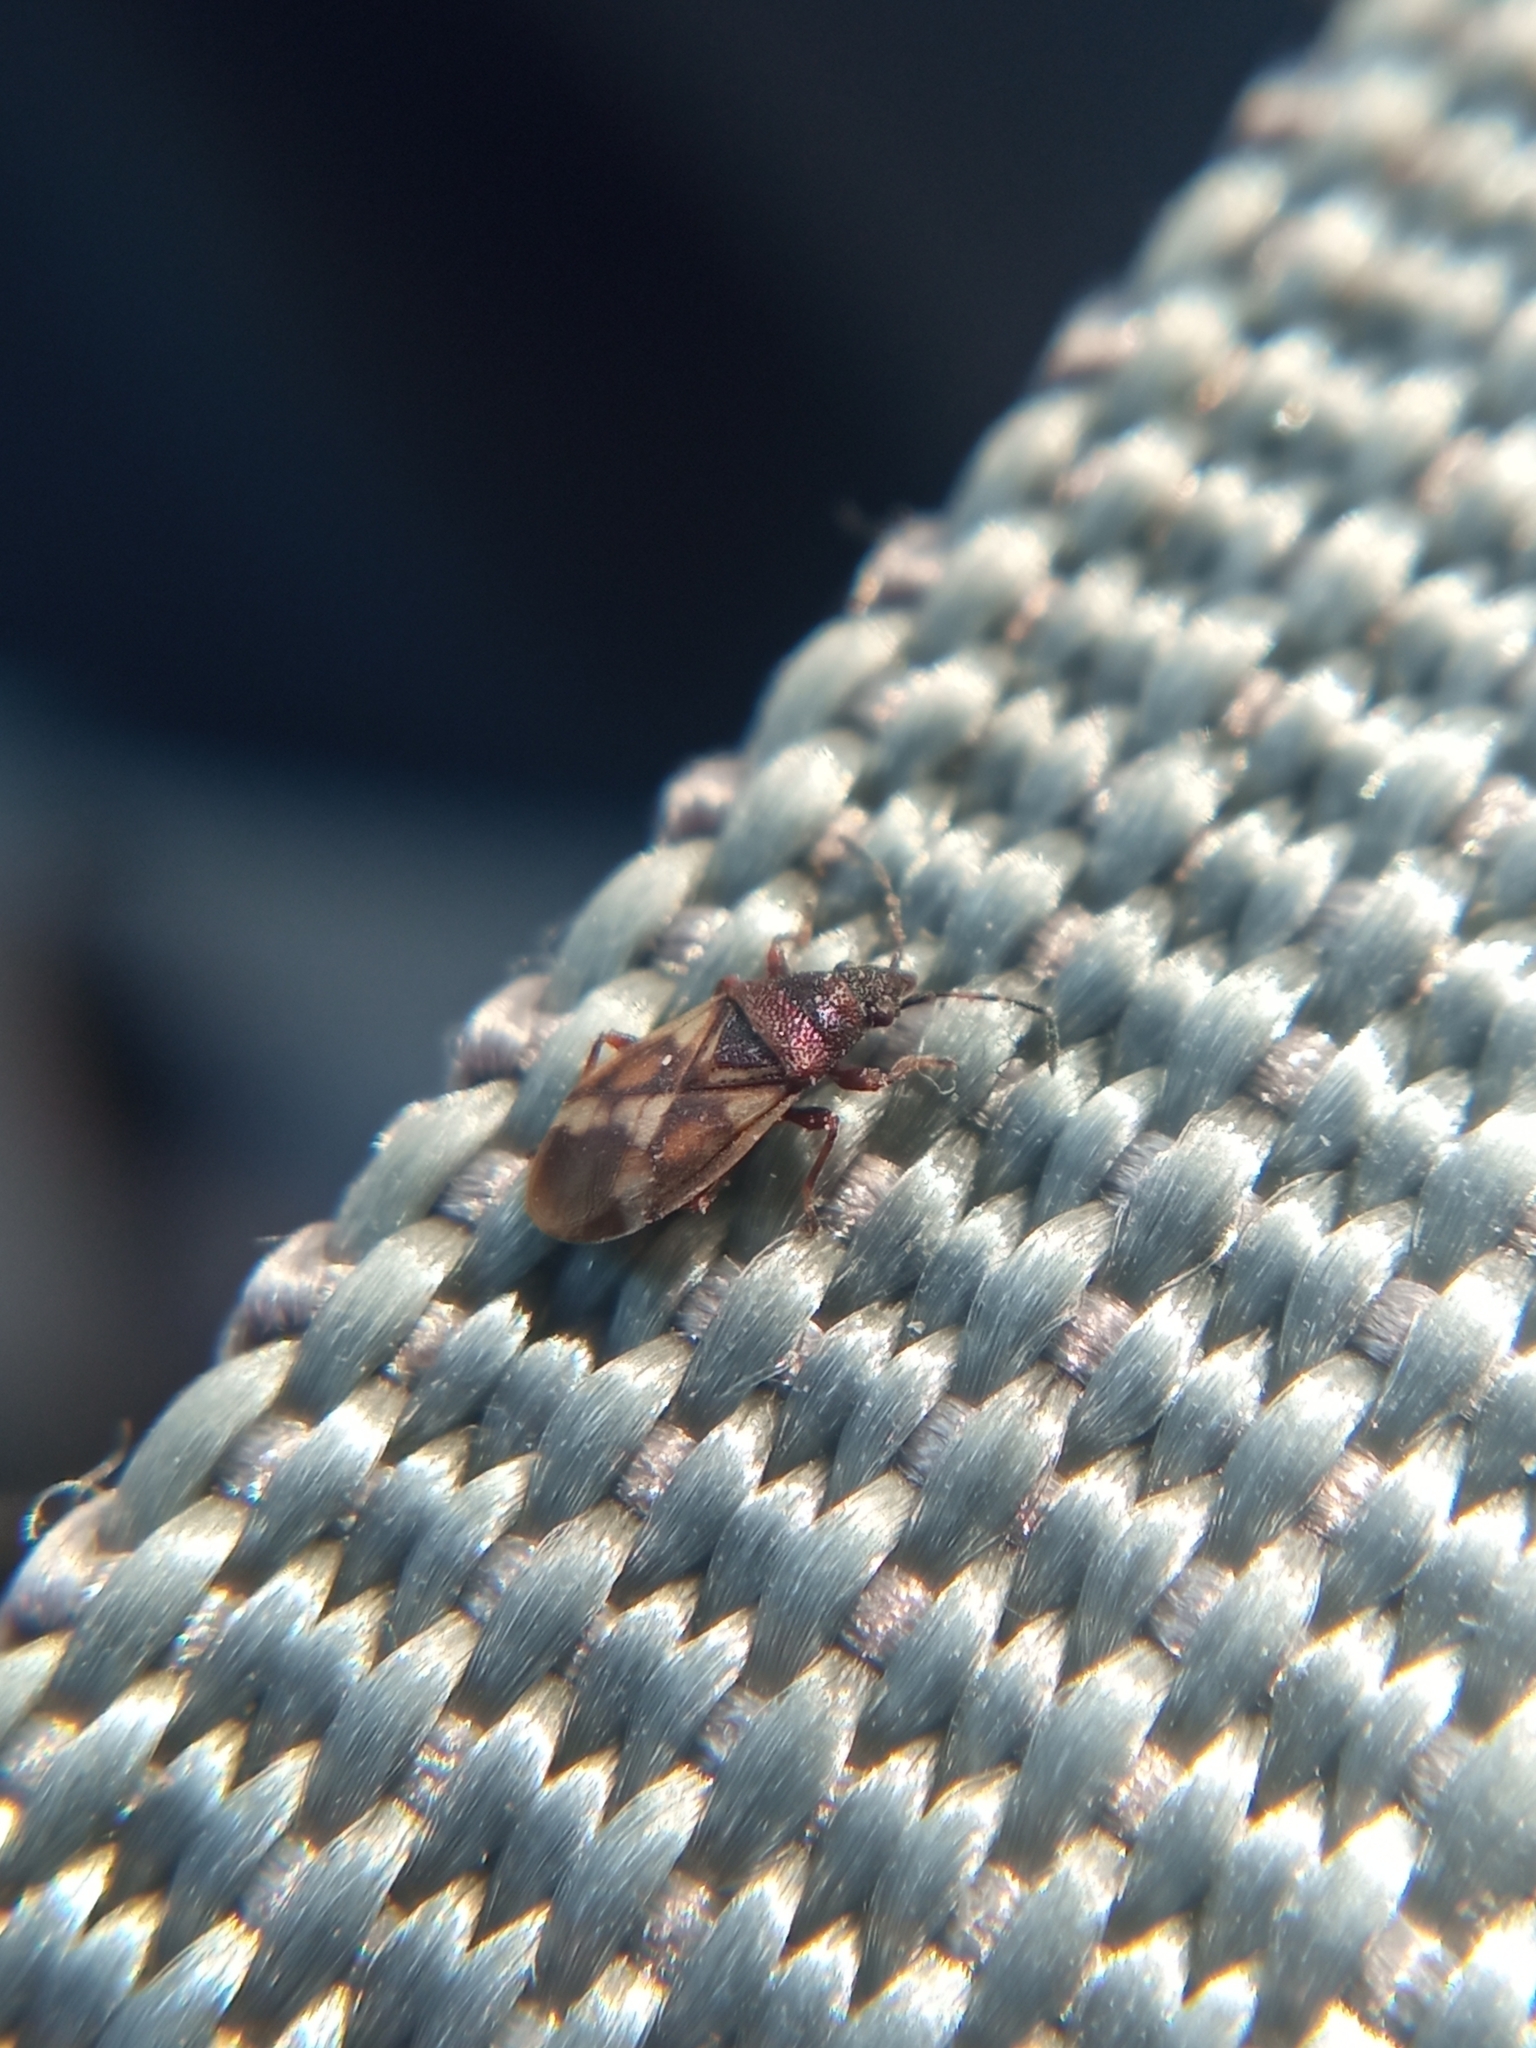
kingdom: Animalia
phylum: Arthropoda
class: Insecta
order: Hemiptera
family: Oxycarenidae
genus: Oxycarenus
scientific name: Oxycarenus modestus
